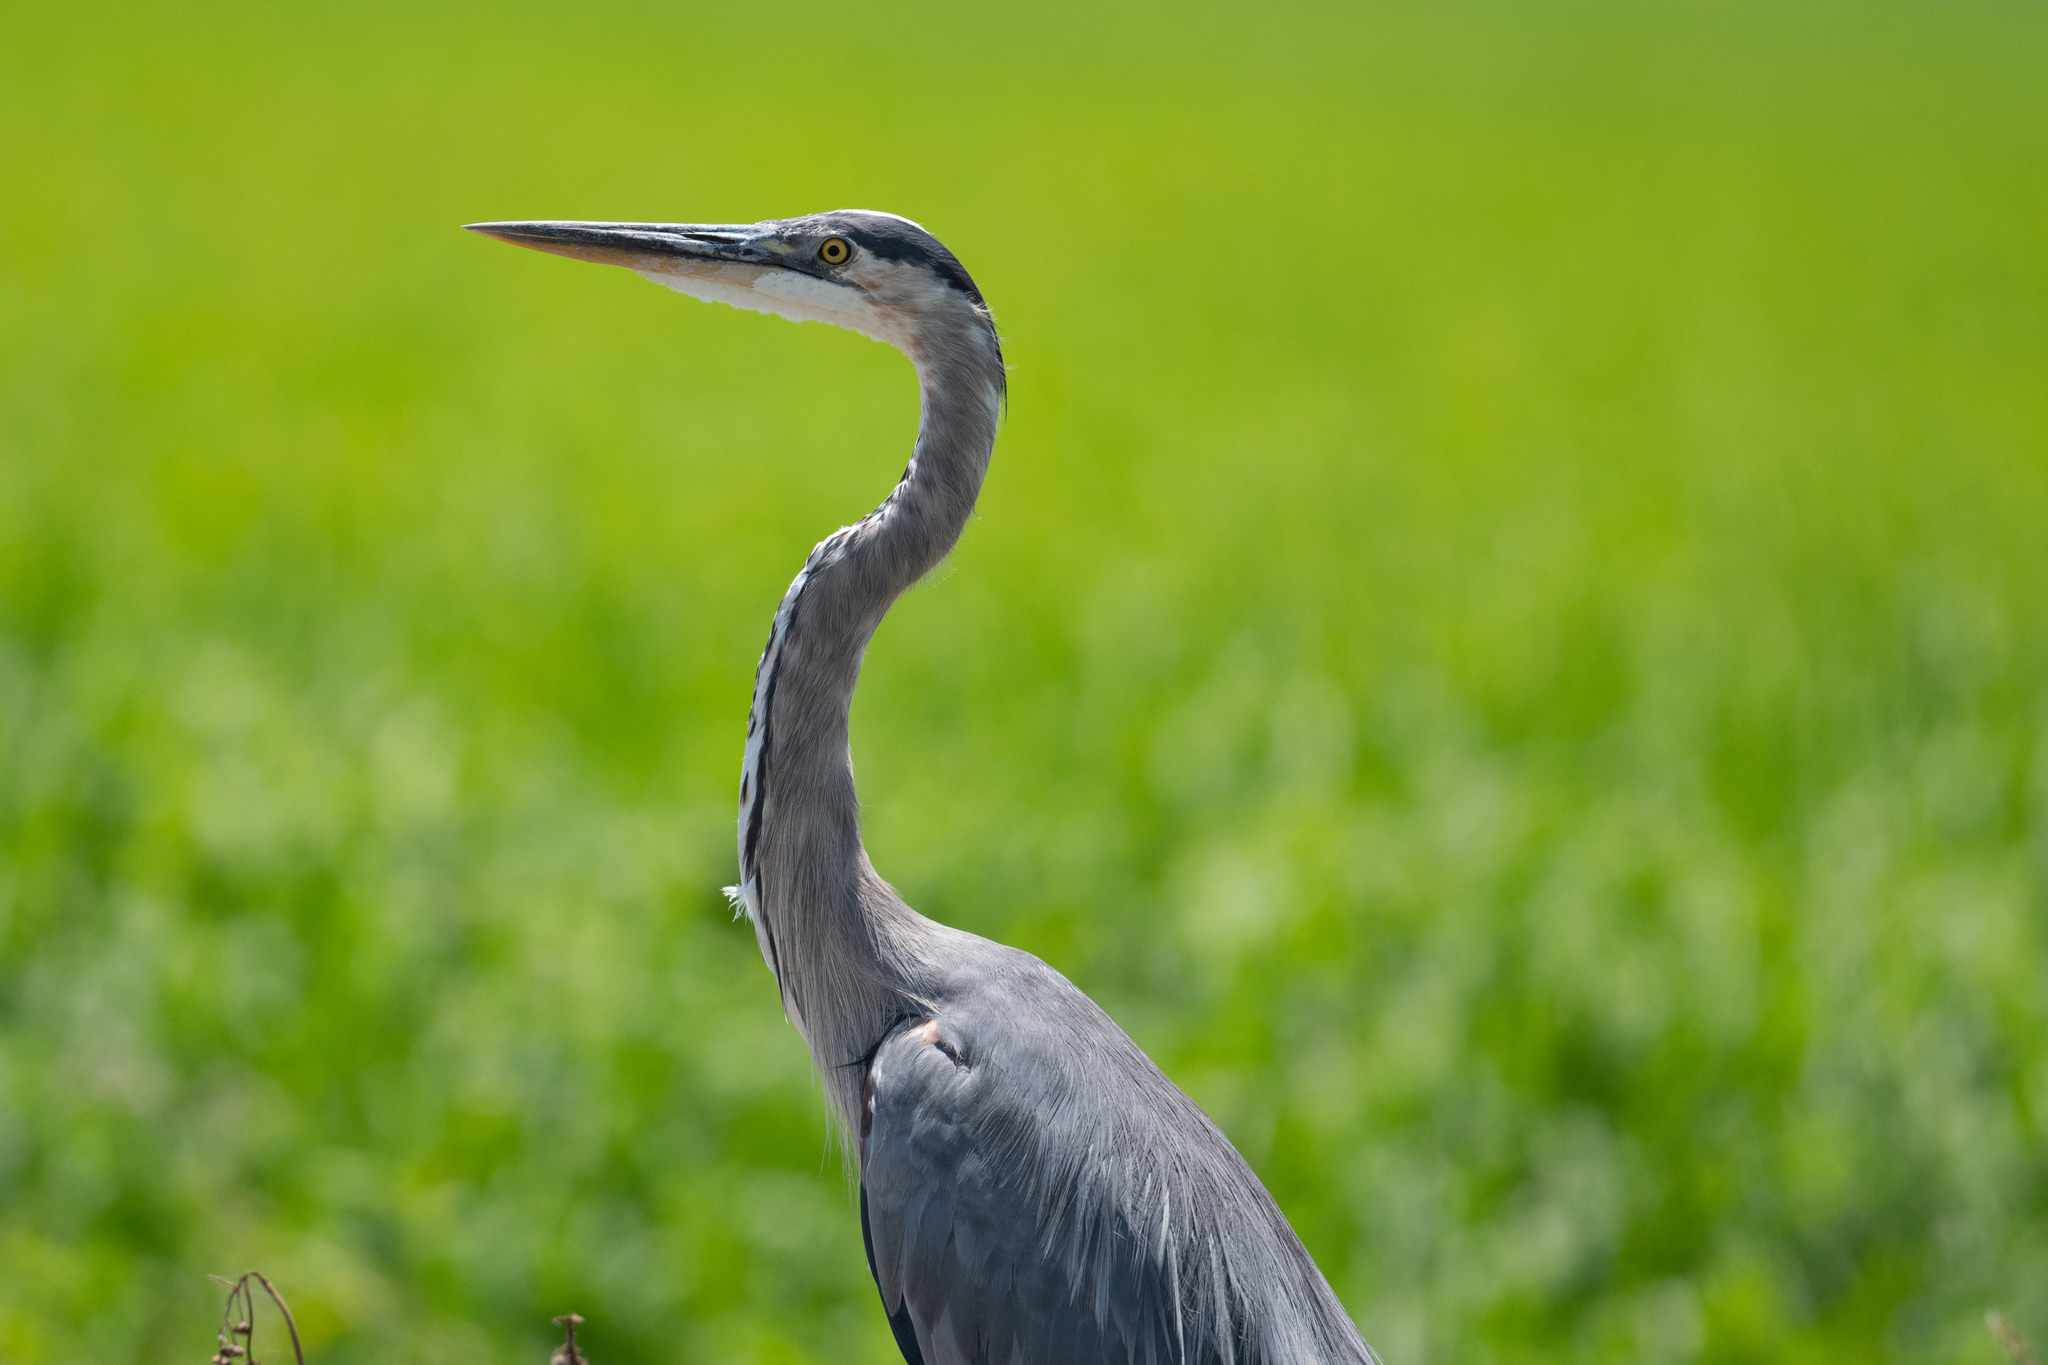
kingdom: Animalia
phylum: Chordata
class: Aves
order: Pelecaniformes
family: Ardeidae
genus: Ardea
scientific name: Ardea herodias
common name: Great blue heron
